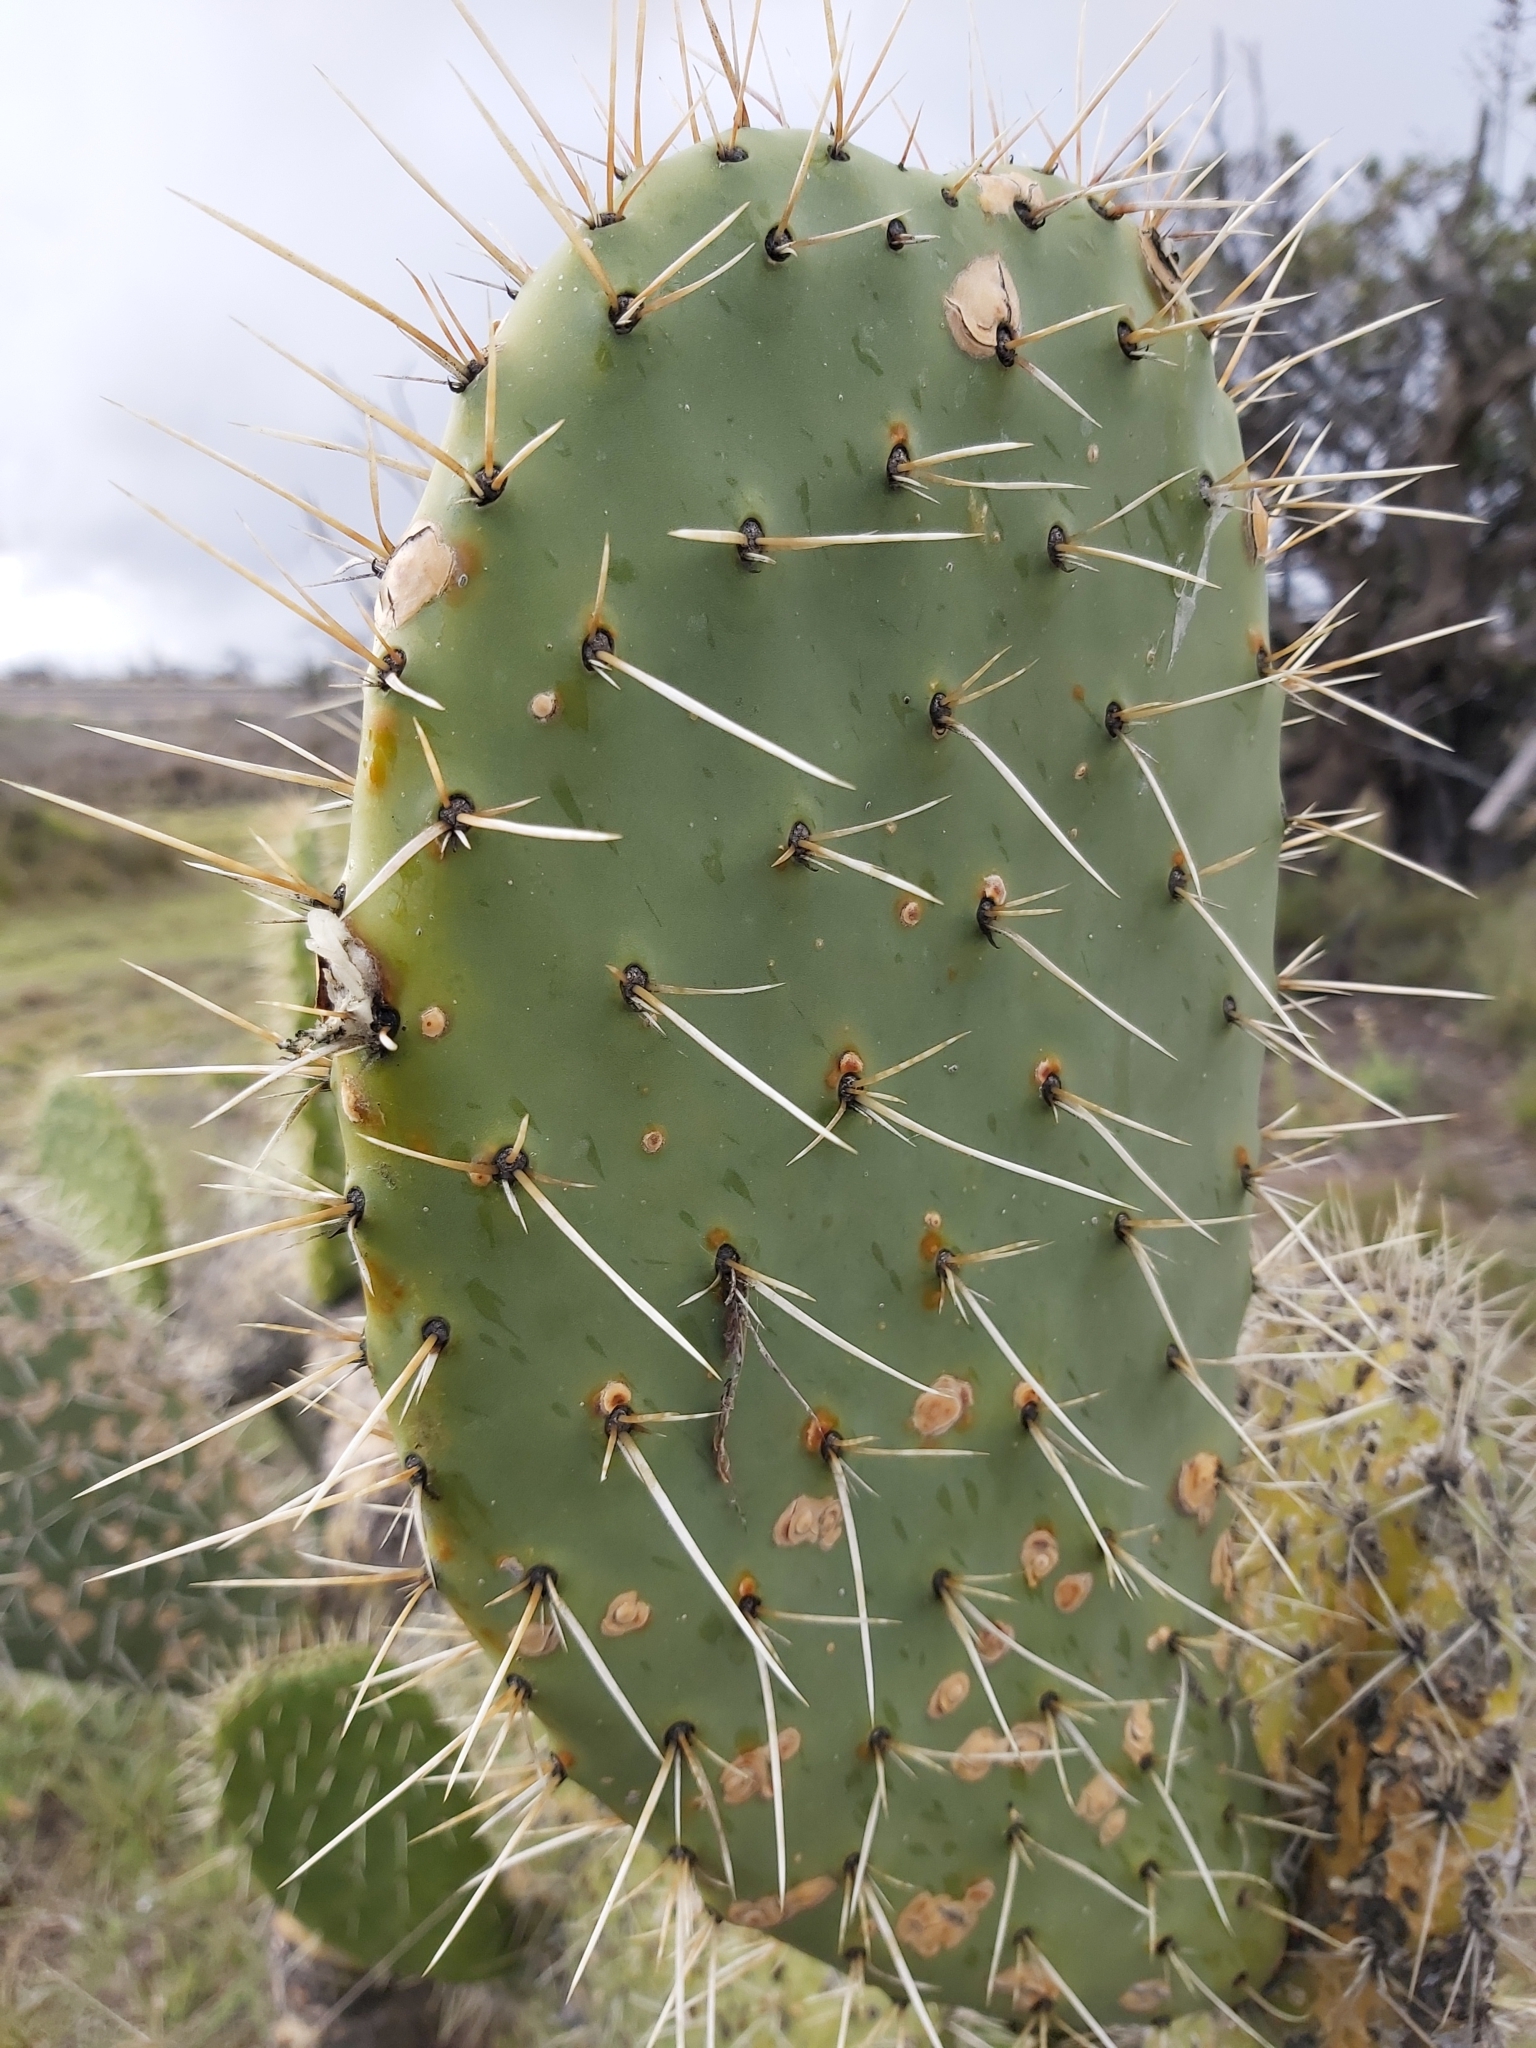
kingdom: Plantae
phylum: Tracheophyta
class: Magnoliopsida
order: Caryophyllales
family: Cactaceae
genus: Opuntia
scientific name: Opuntia ficus-indica
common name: Barbary fig
